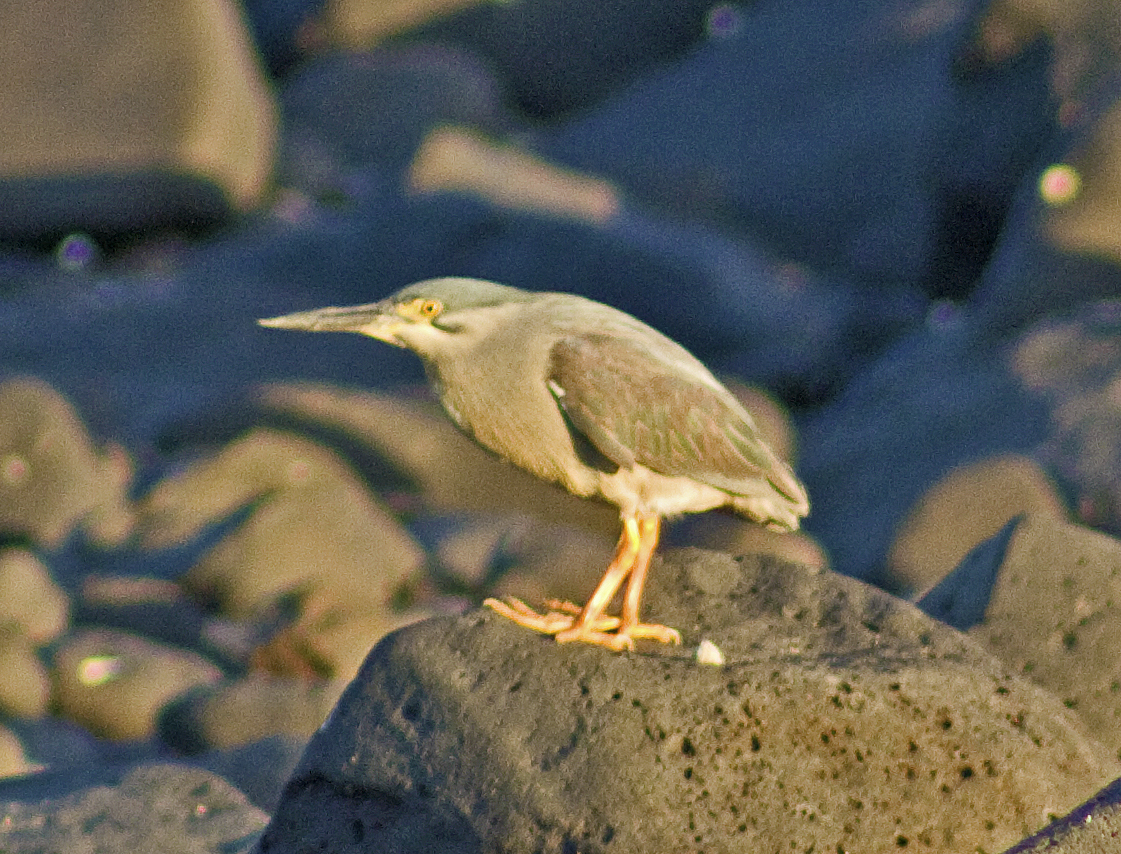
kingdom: Animalia
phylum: Chordata
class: Aves
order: Pelecaniformes
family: Ardeidae
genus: Butorides
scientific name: Butorides striata
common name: Striated heron
